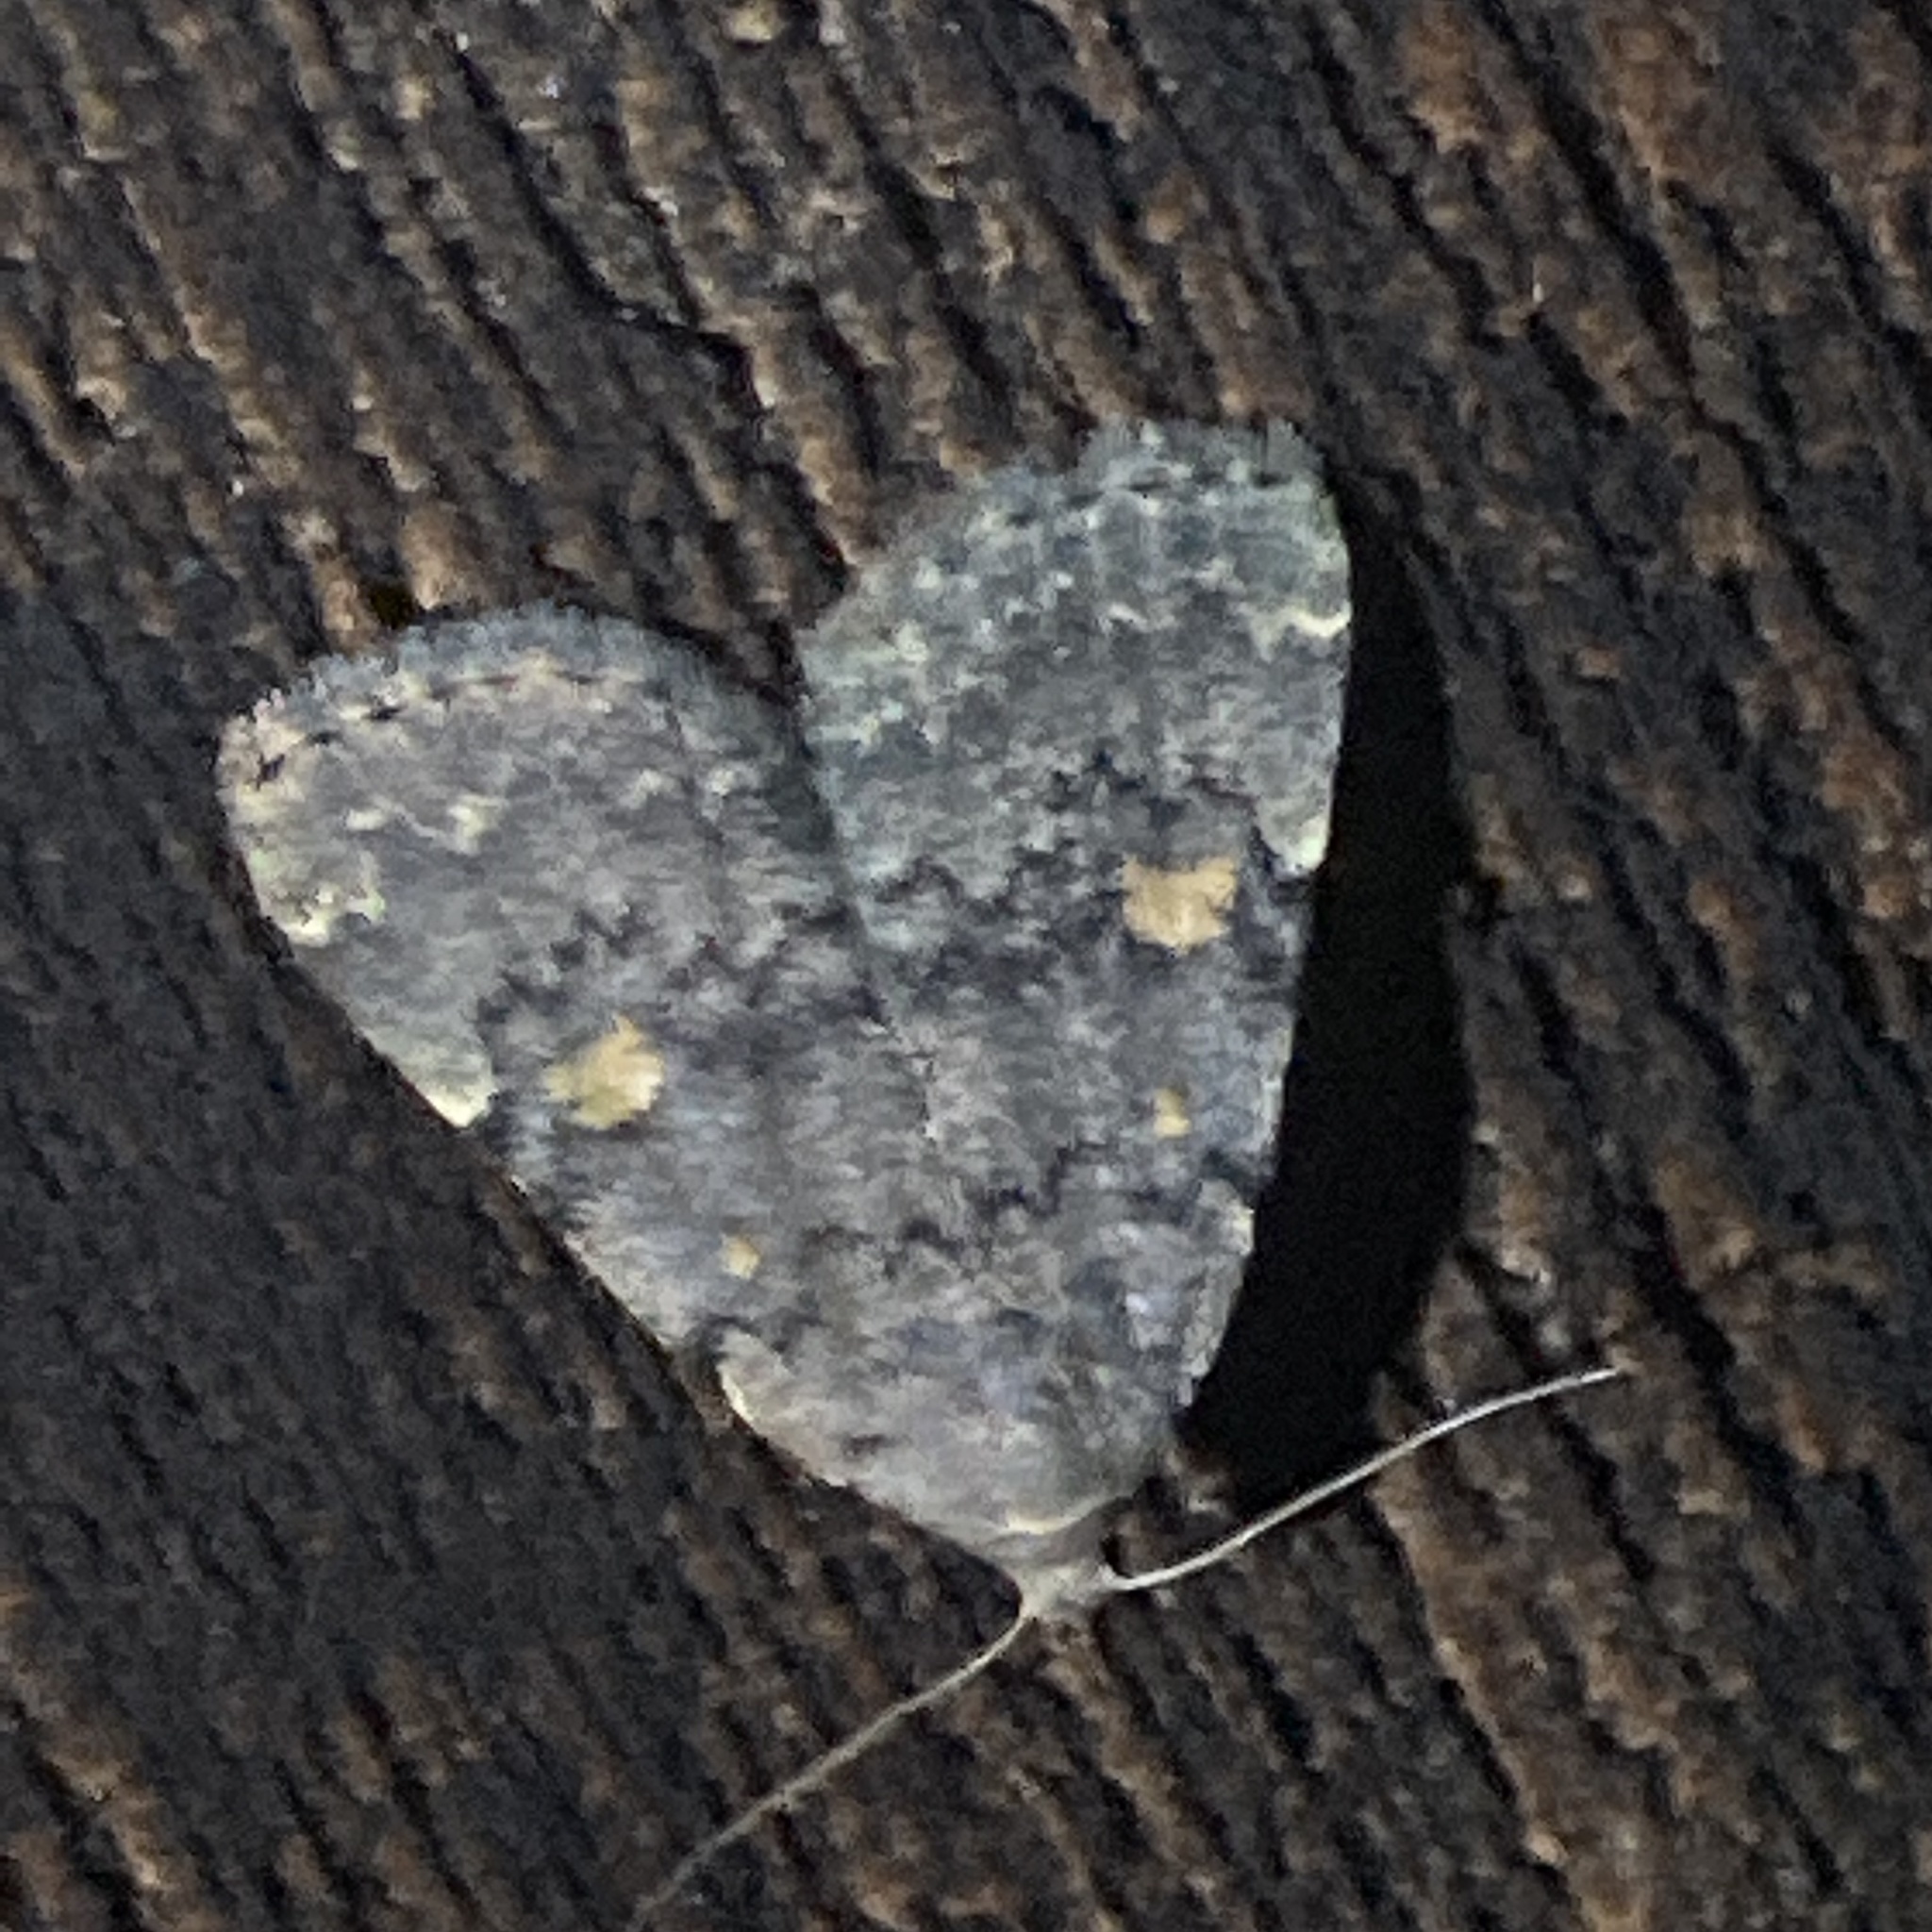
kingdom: Animalia
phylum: Arthropoda
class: Insecta
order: Lepidoptera
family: Erebidae
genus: Idia
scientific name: Idia aemula
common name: Common idia moth
